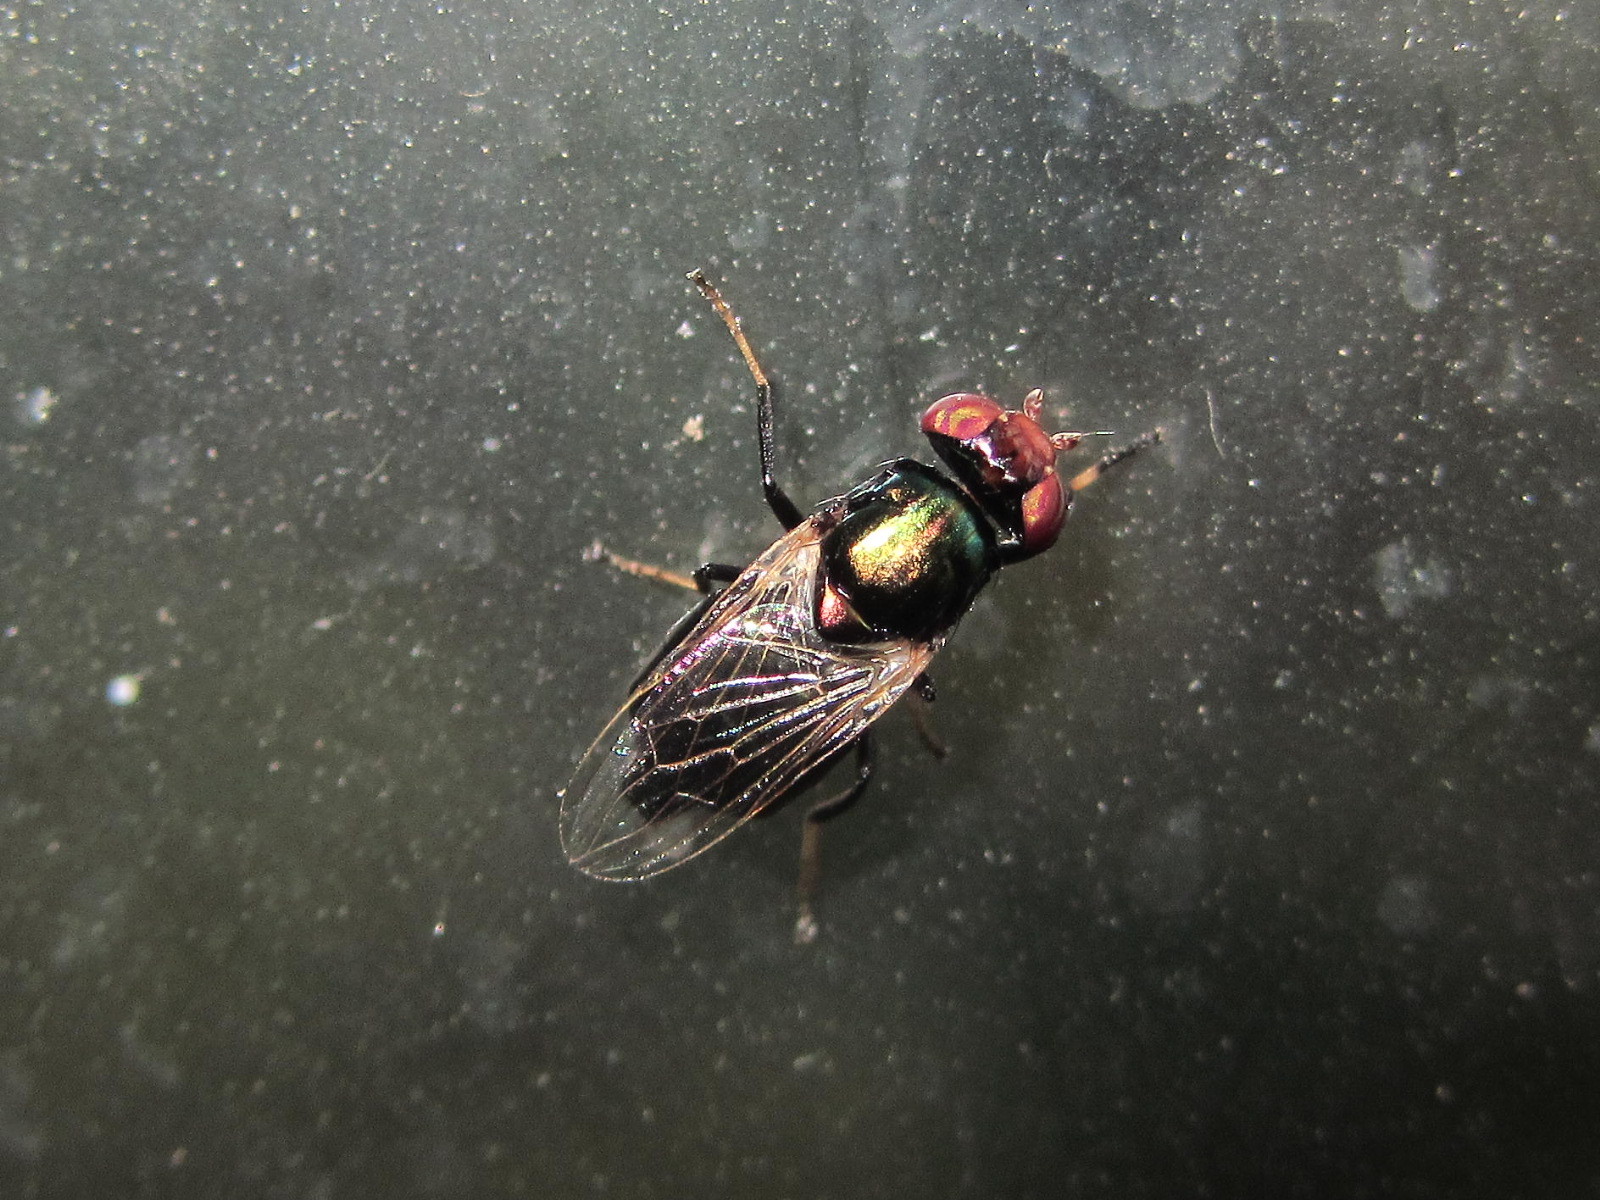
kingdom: Animalia
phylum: Arthropoda
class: Insecta
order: Diptera
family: Ulidiidae
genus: Physiphora
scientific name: Physiphora alceae
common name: Picture-winged fly
